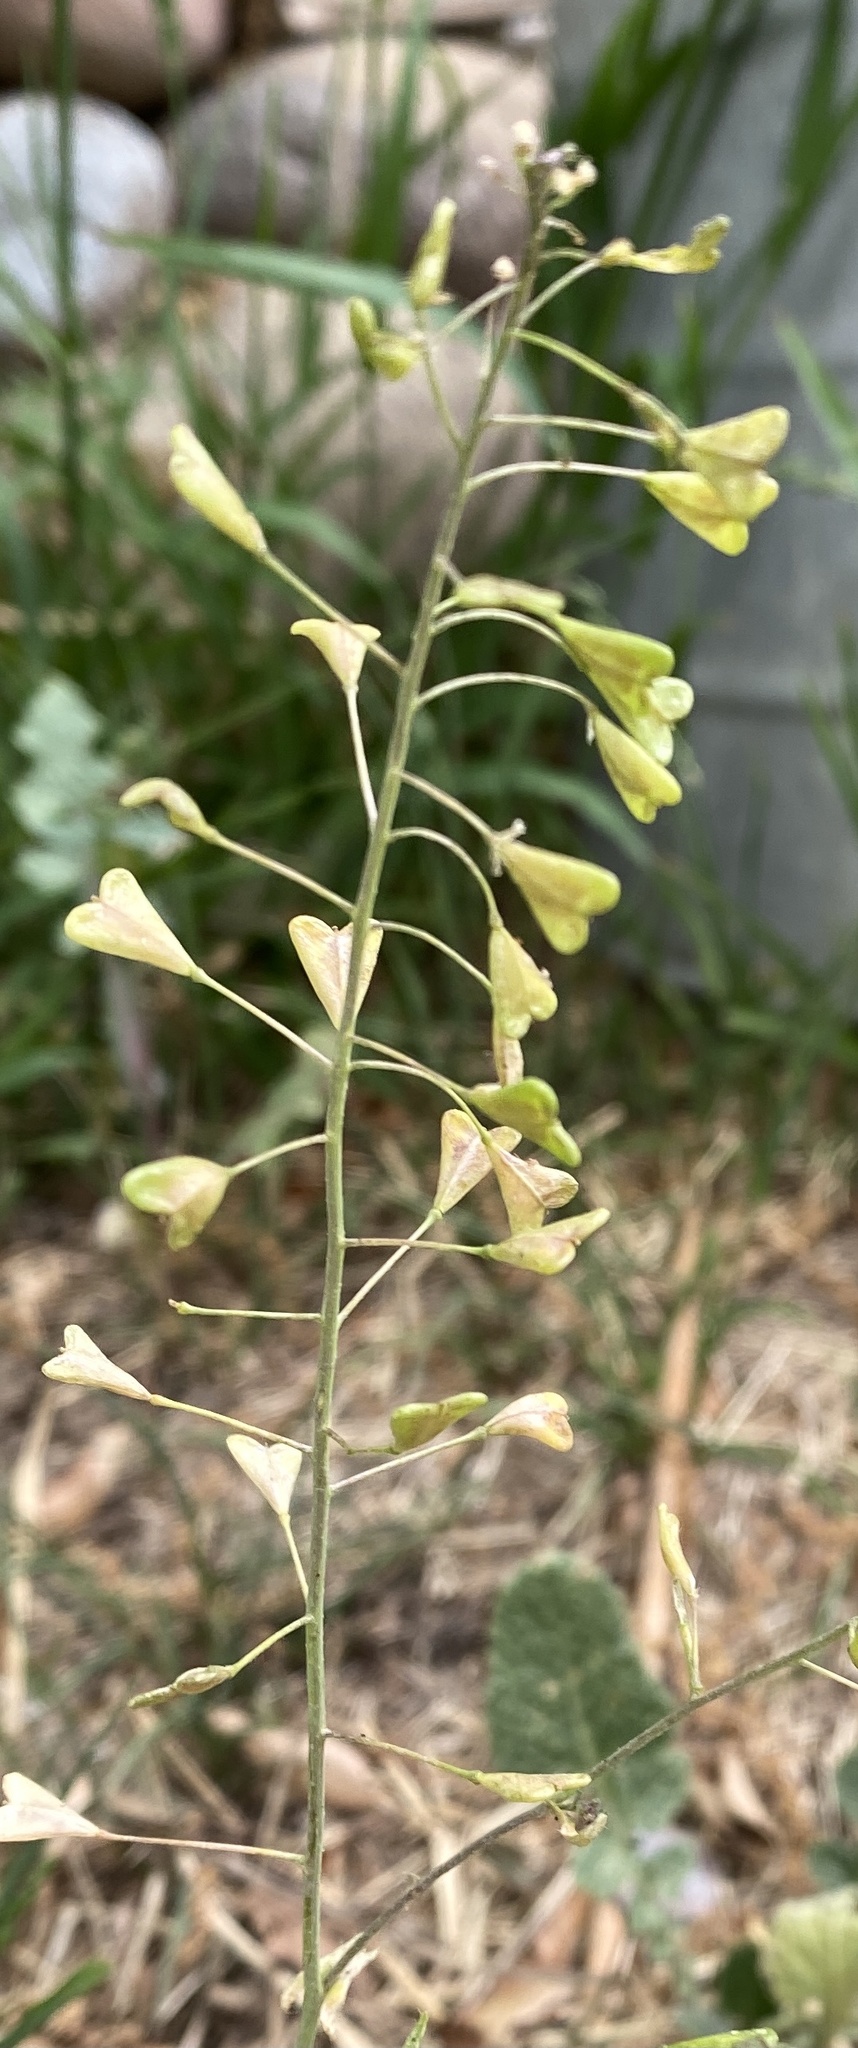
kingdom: Plantae
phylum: Tracheophyta
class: Magnoliopsida
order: Brassicales
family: Brassicaceae
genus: Capsella
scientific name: Capsella bursa-pastoris
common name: Shepherd's purse
